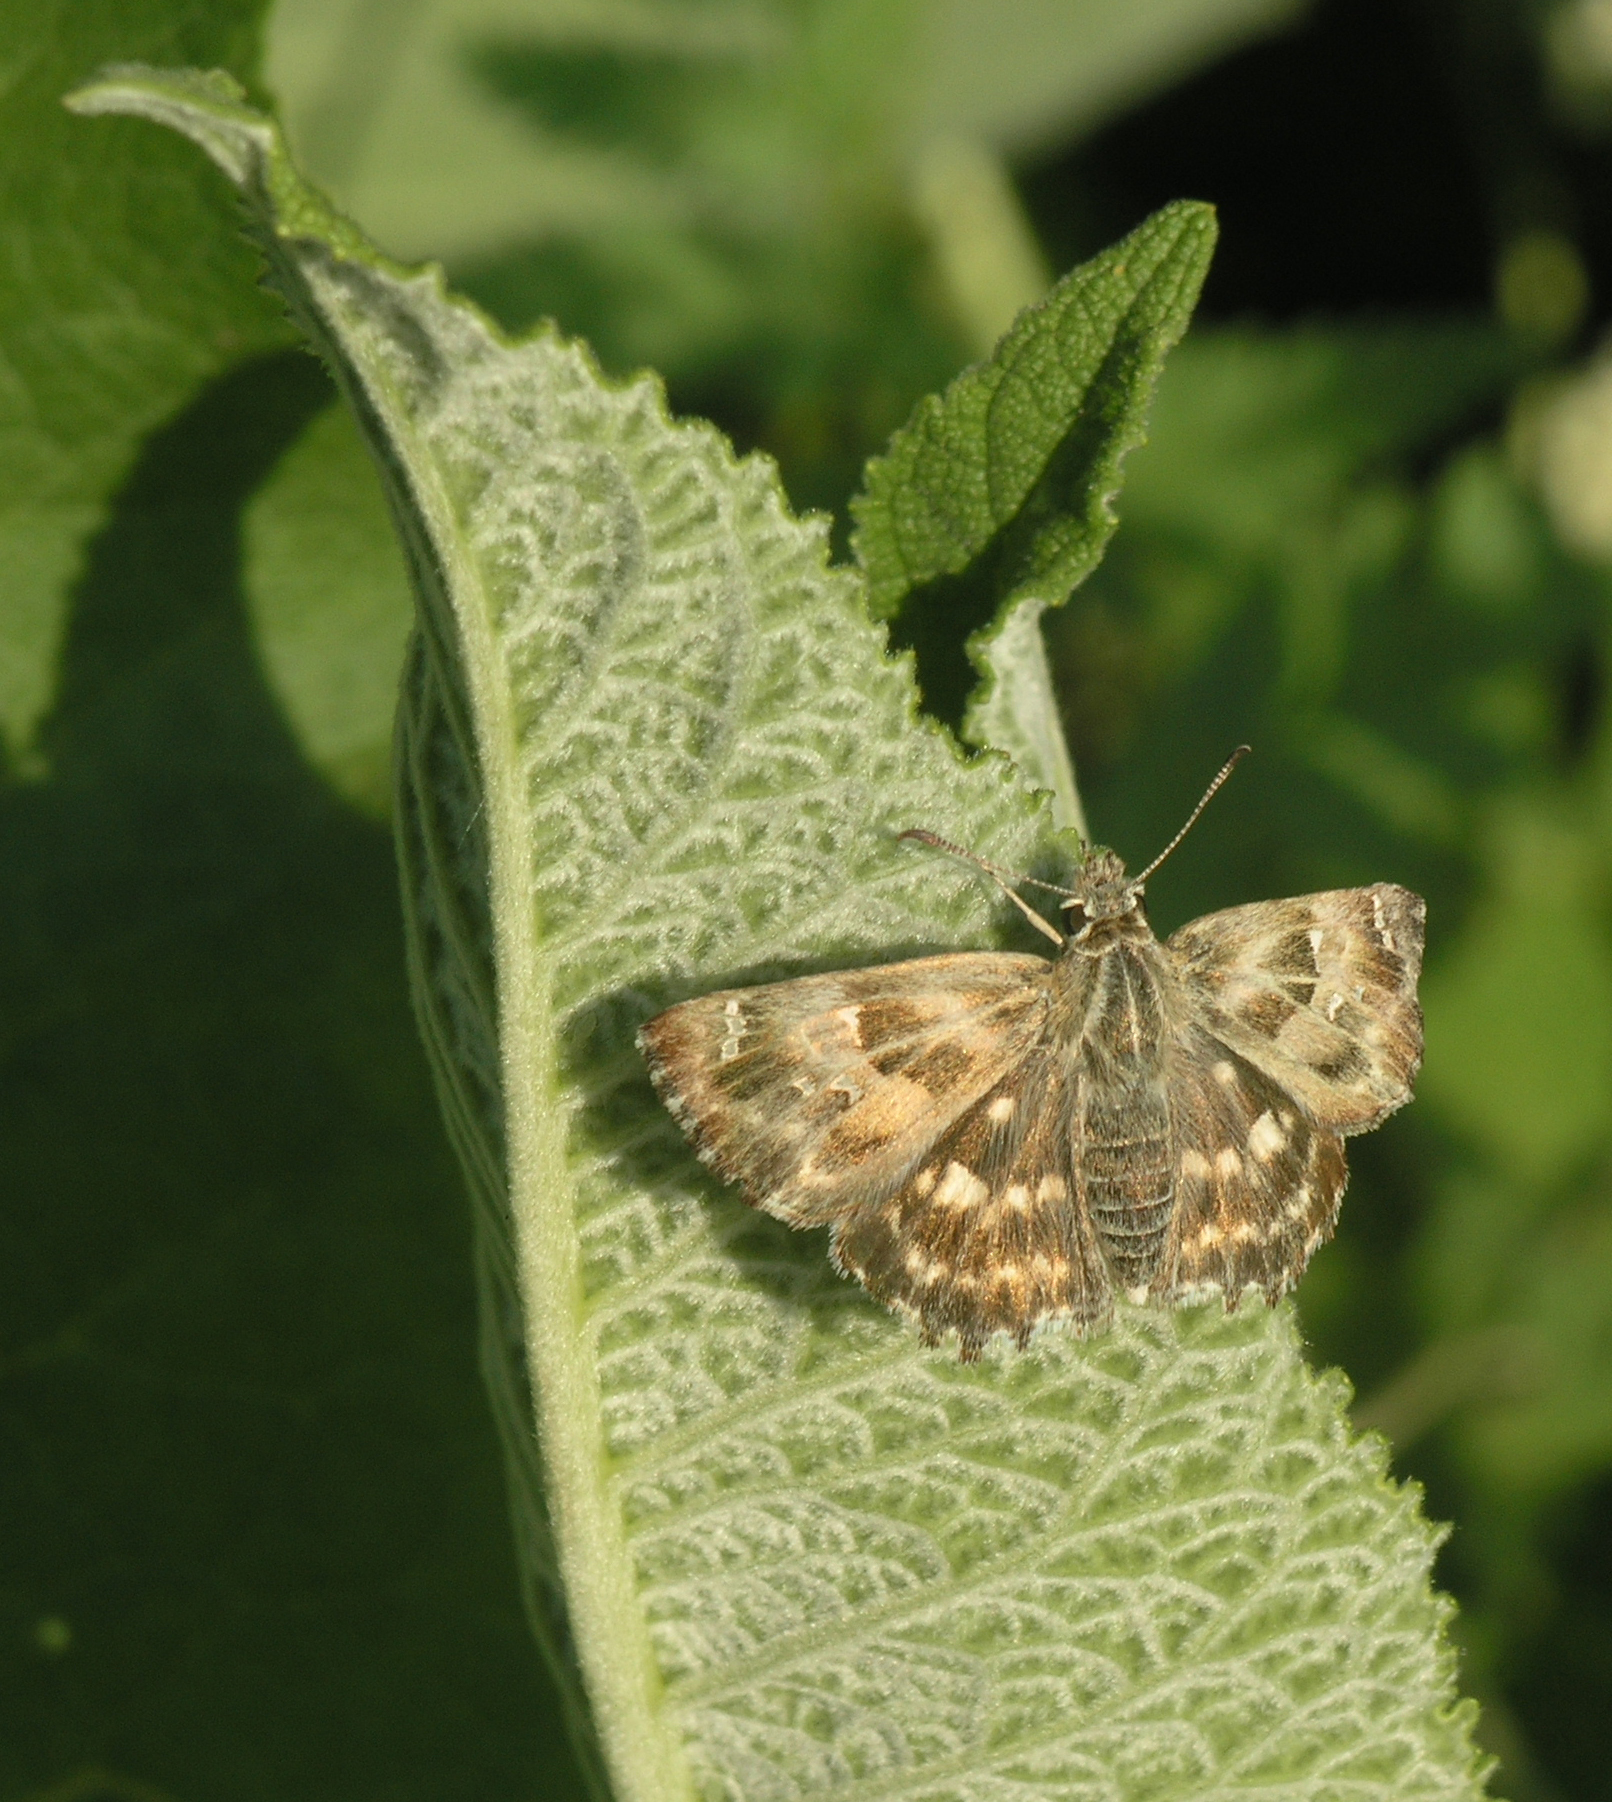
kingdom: Animalia
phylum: Arthropoda
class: Insecta
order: Lepidoptera
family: Hesperiidae
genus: Carcharodus
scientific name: Carcharodus alceae
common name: Mallow skipper
